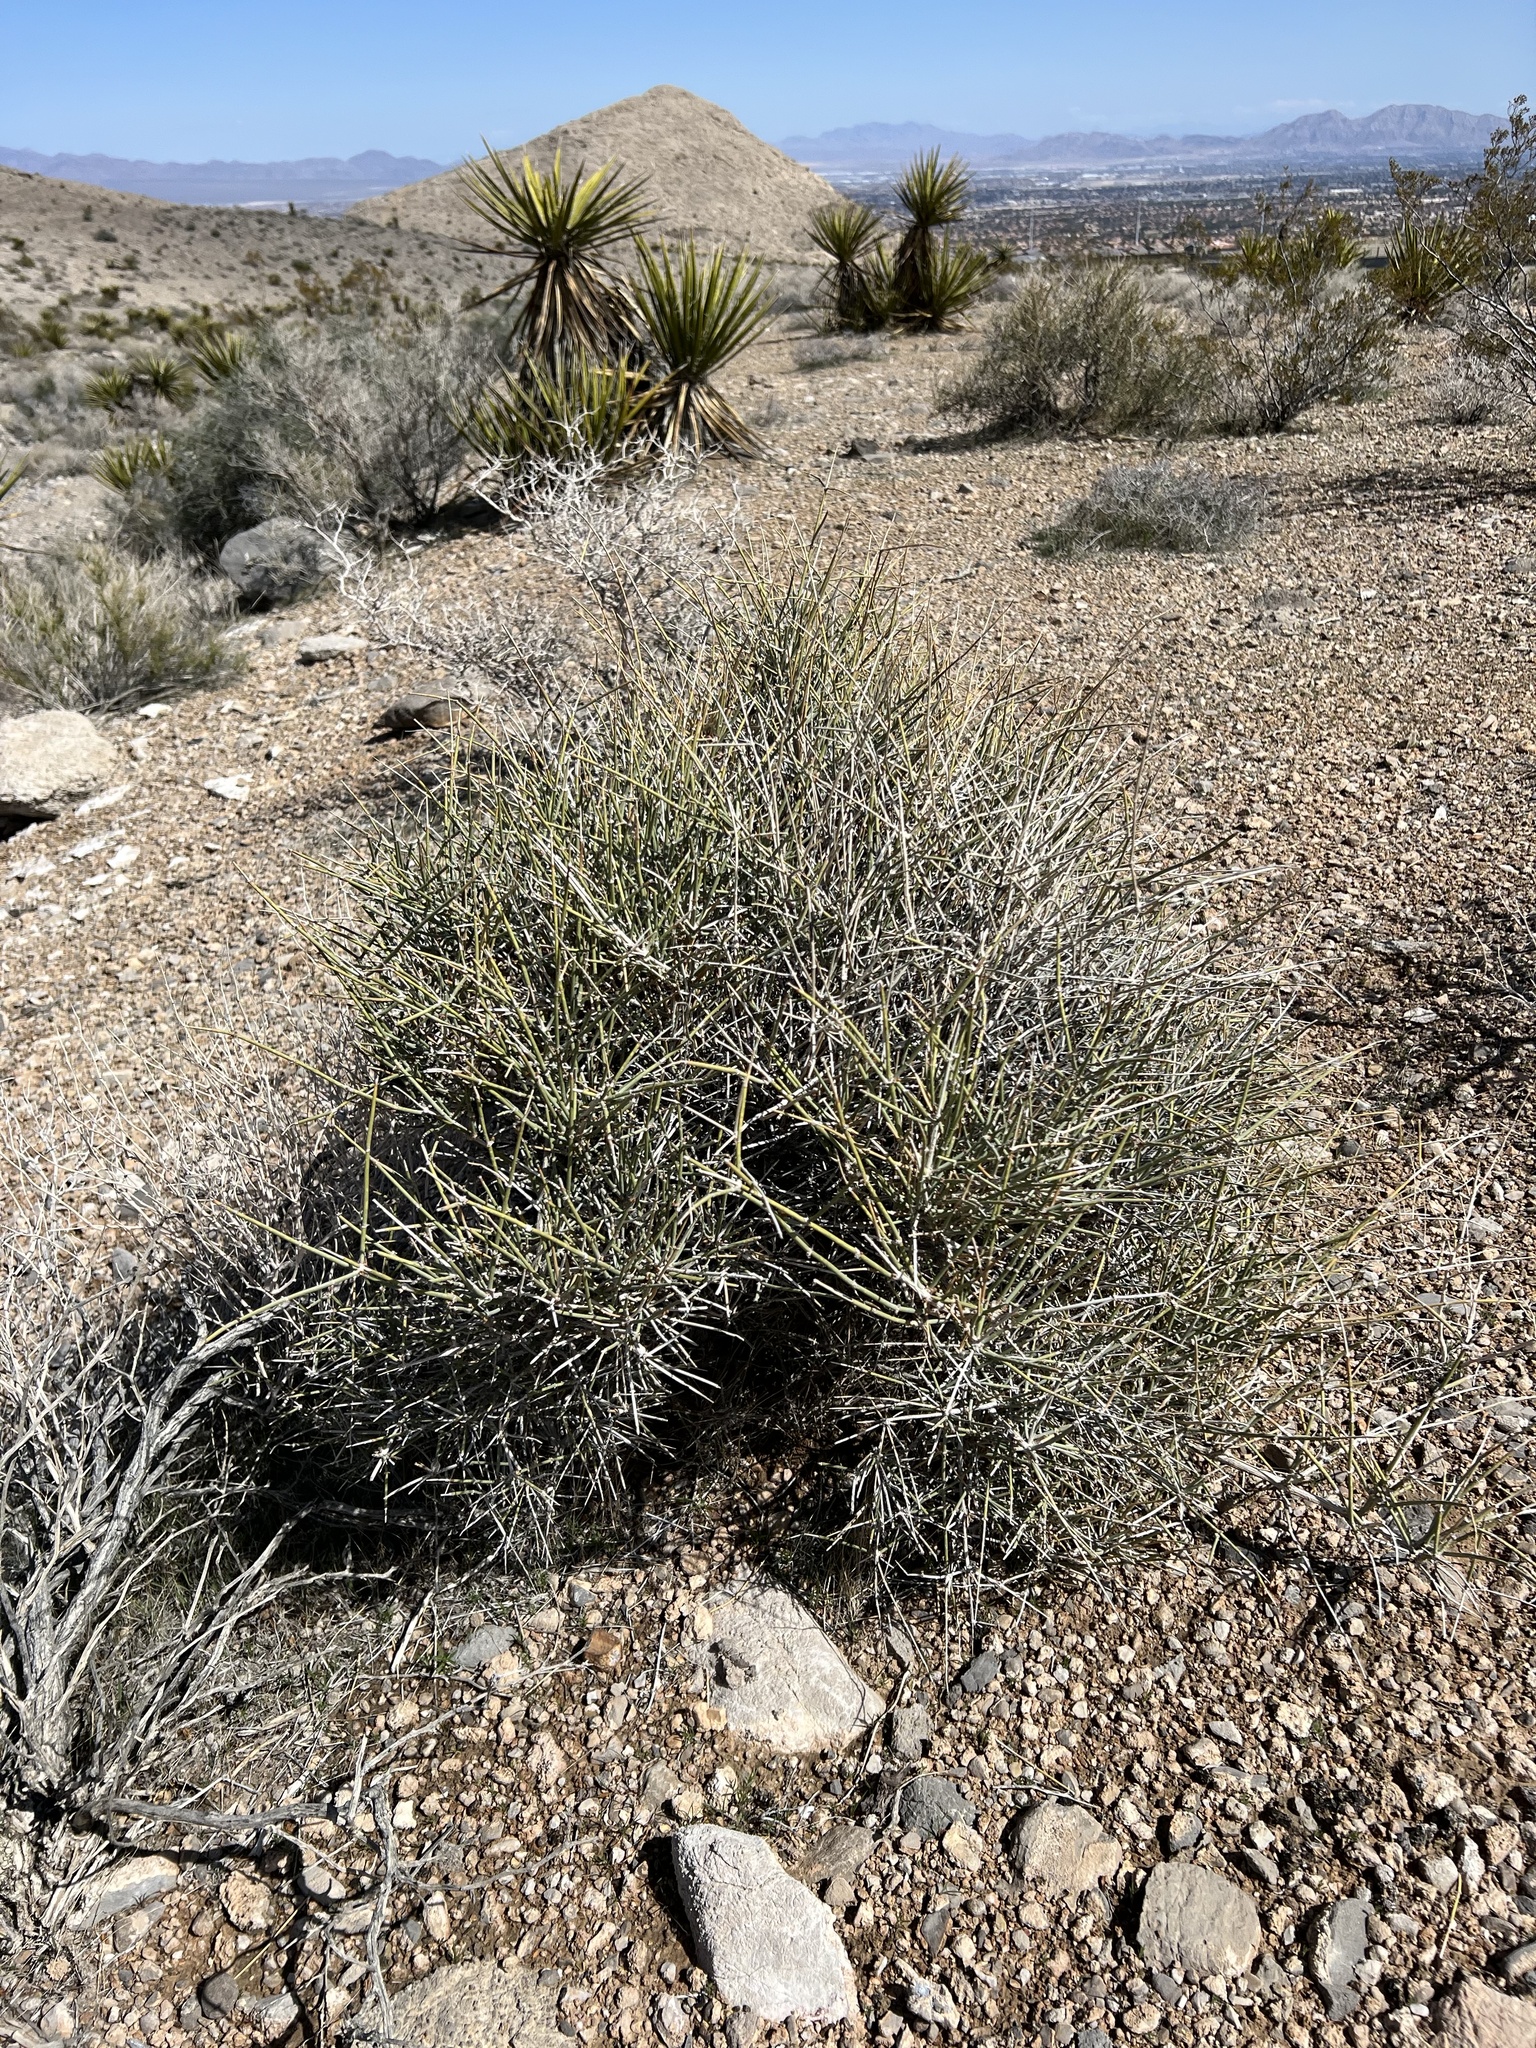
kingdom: Plantae
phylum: Tracheophyta
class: Gnetopsida
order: Ephedrales
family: Ephedraceae
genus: Ephedra
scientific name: Ephedra nevadensis
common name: Gray ephedra
